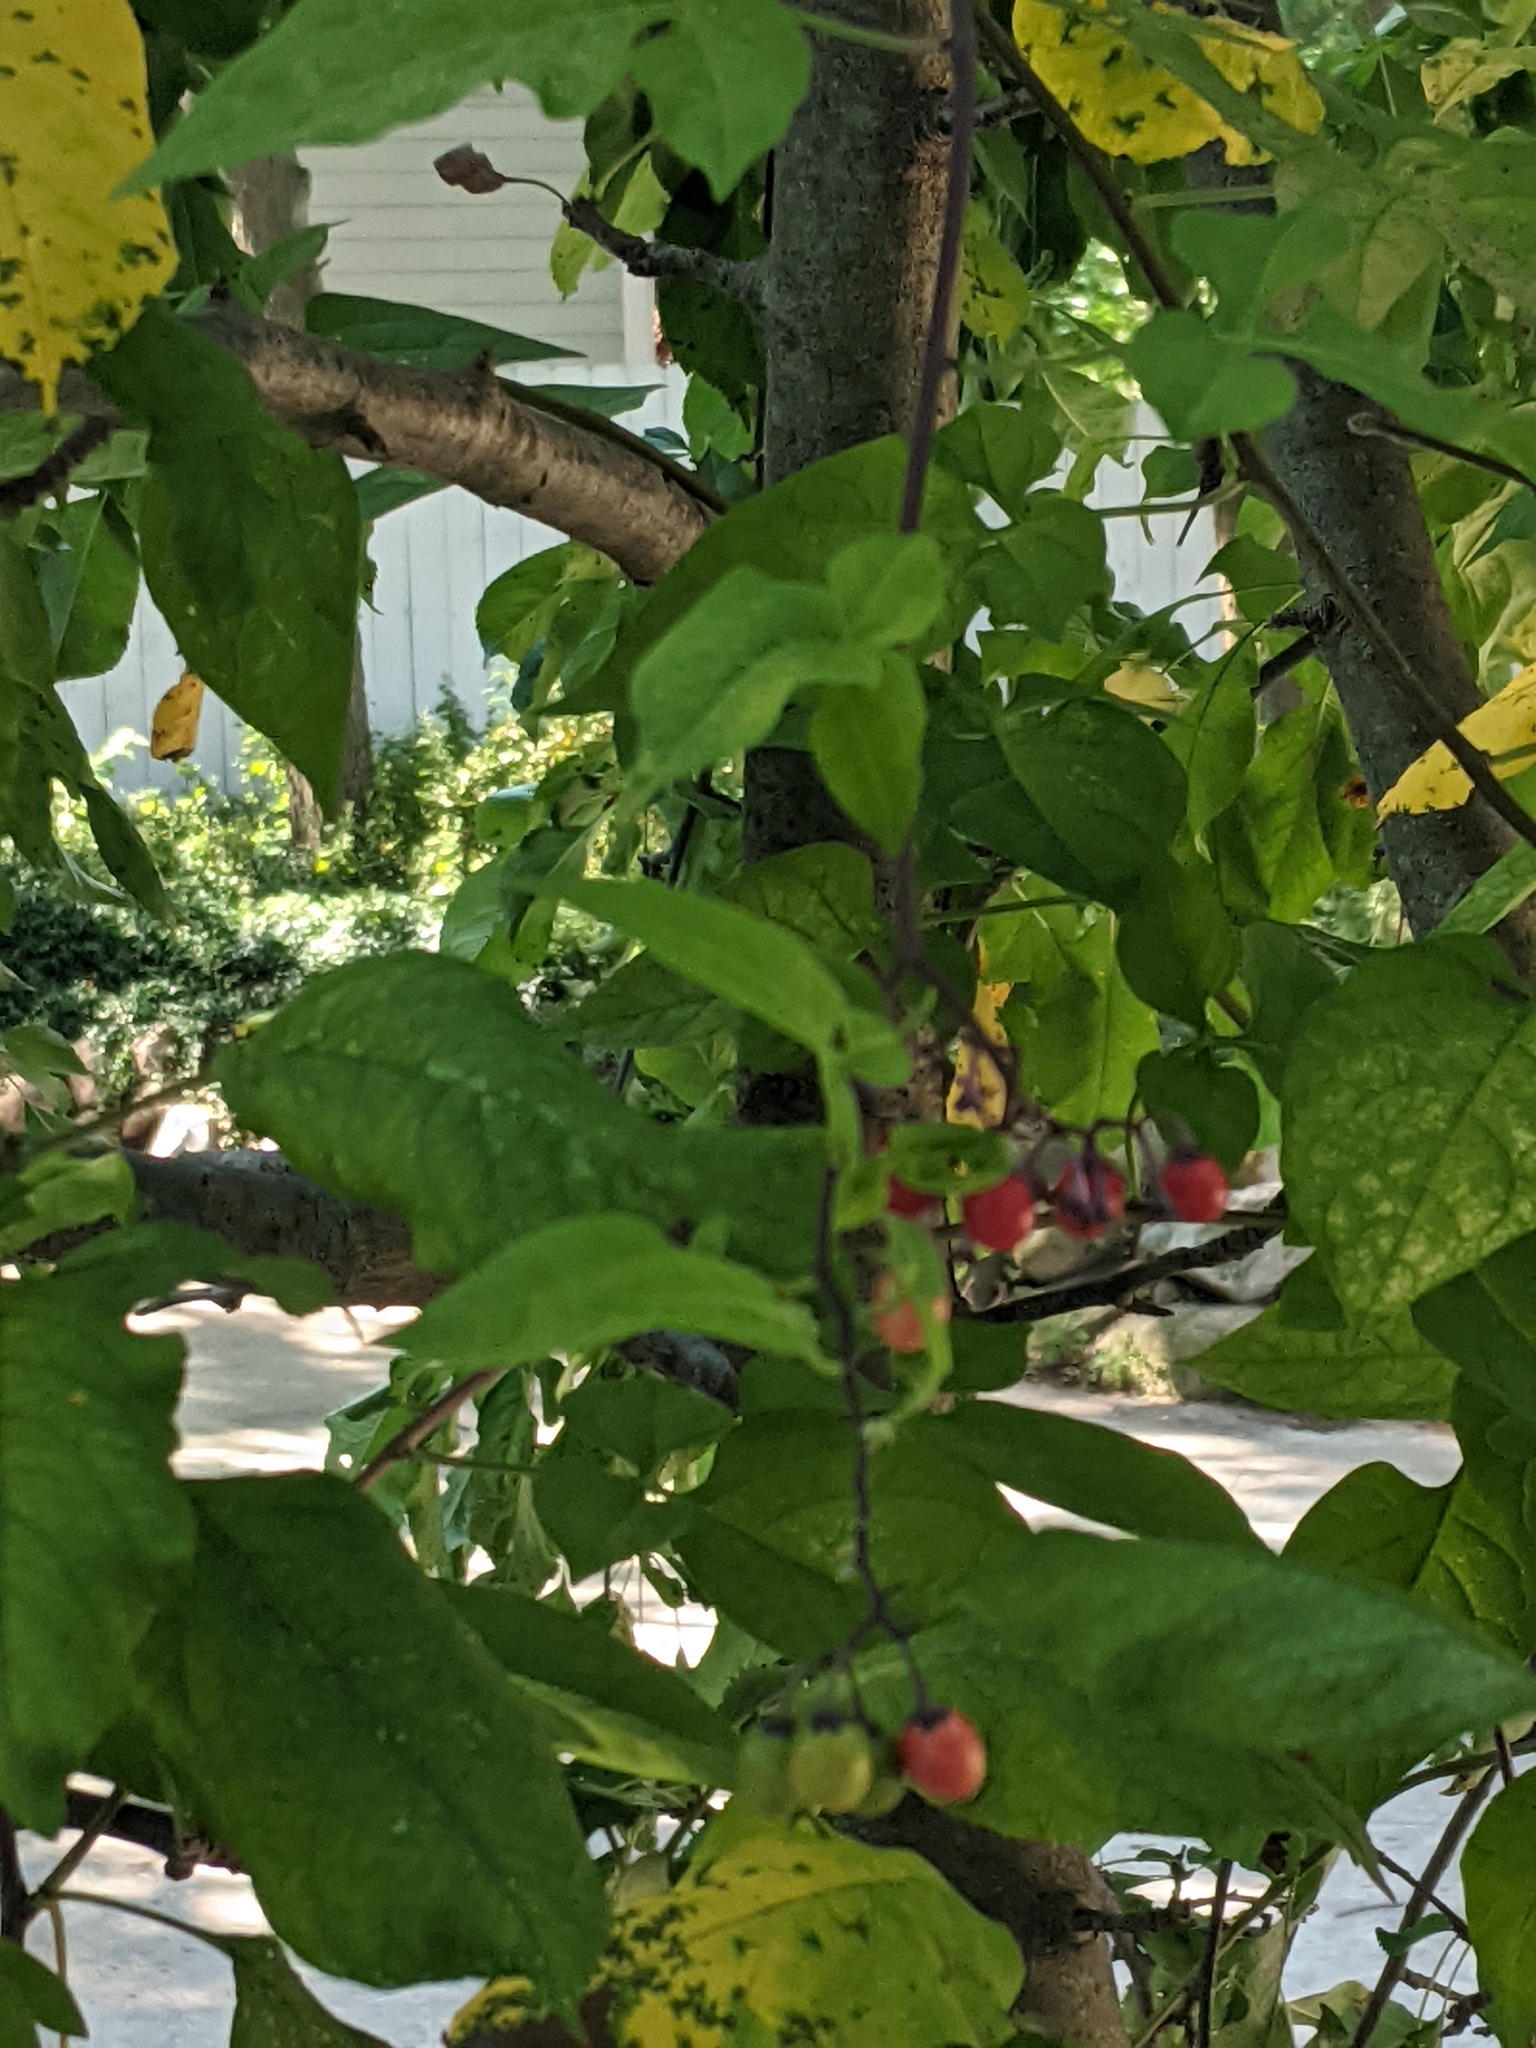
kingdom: Plantae
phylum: Tracheophyta
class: Magnoliopsida
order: Solanales
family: Solanaceae
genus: Solanum
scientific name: Solanum dulcamara
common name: Climbing nightshade
